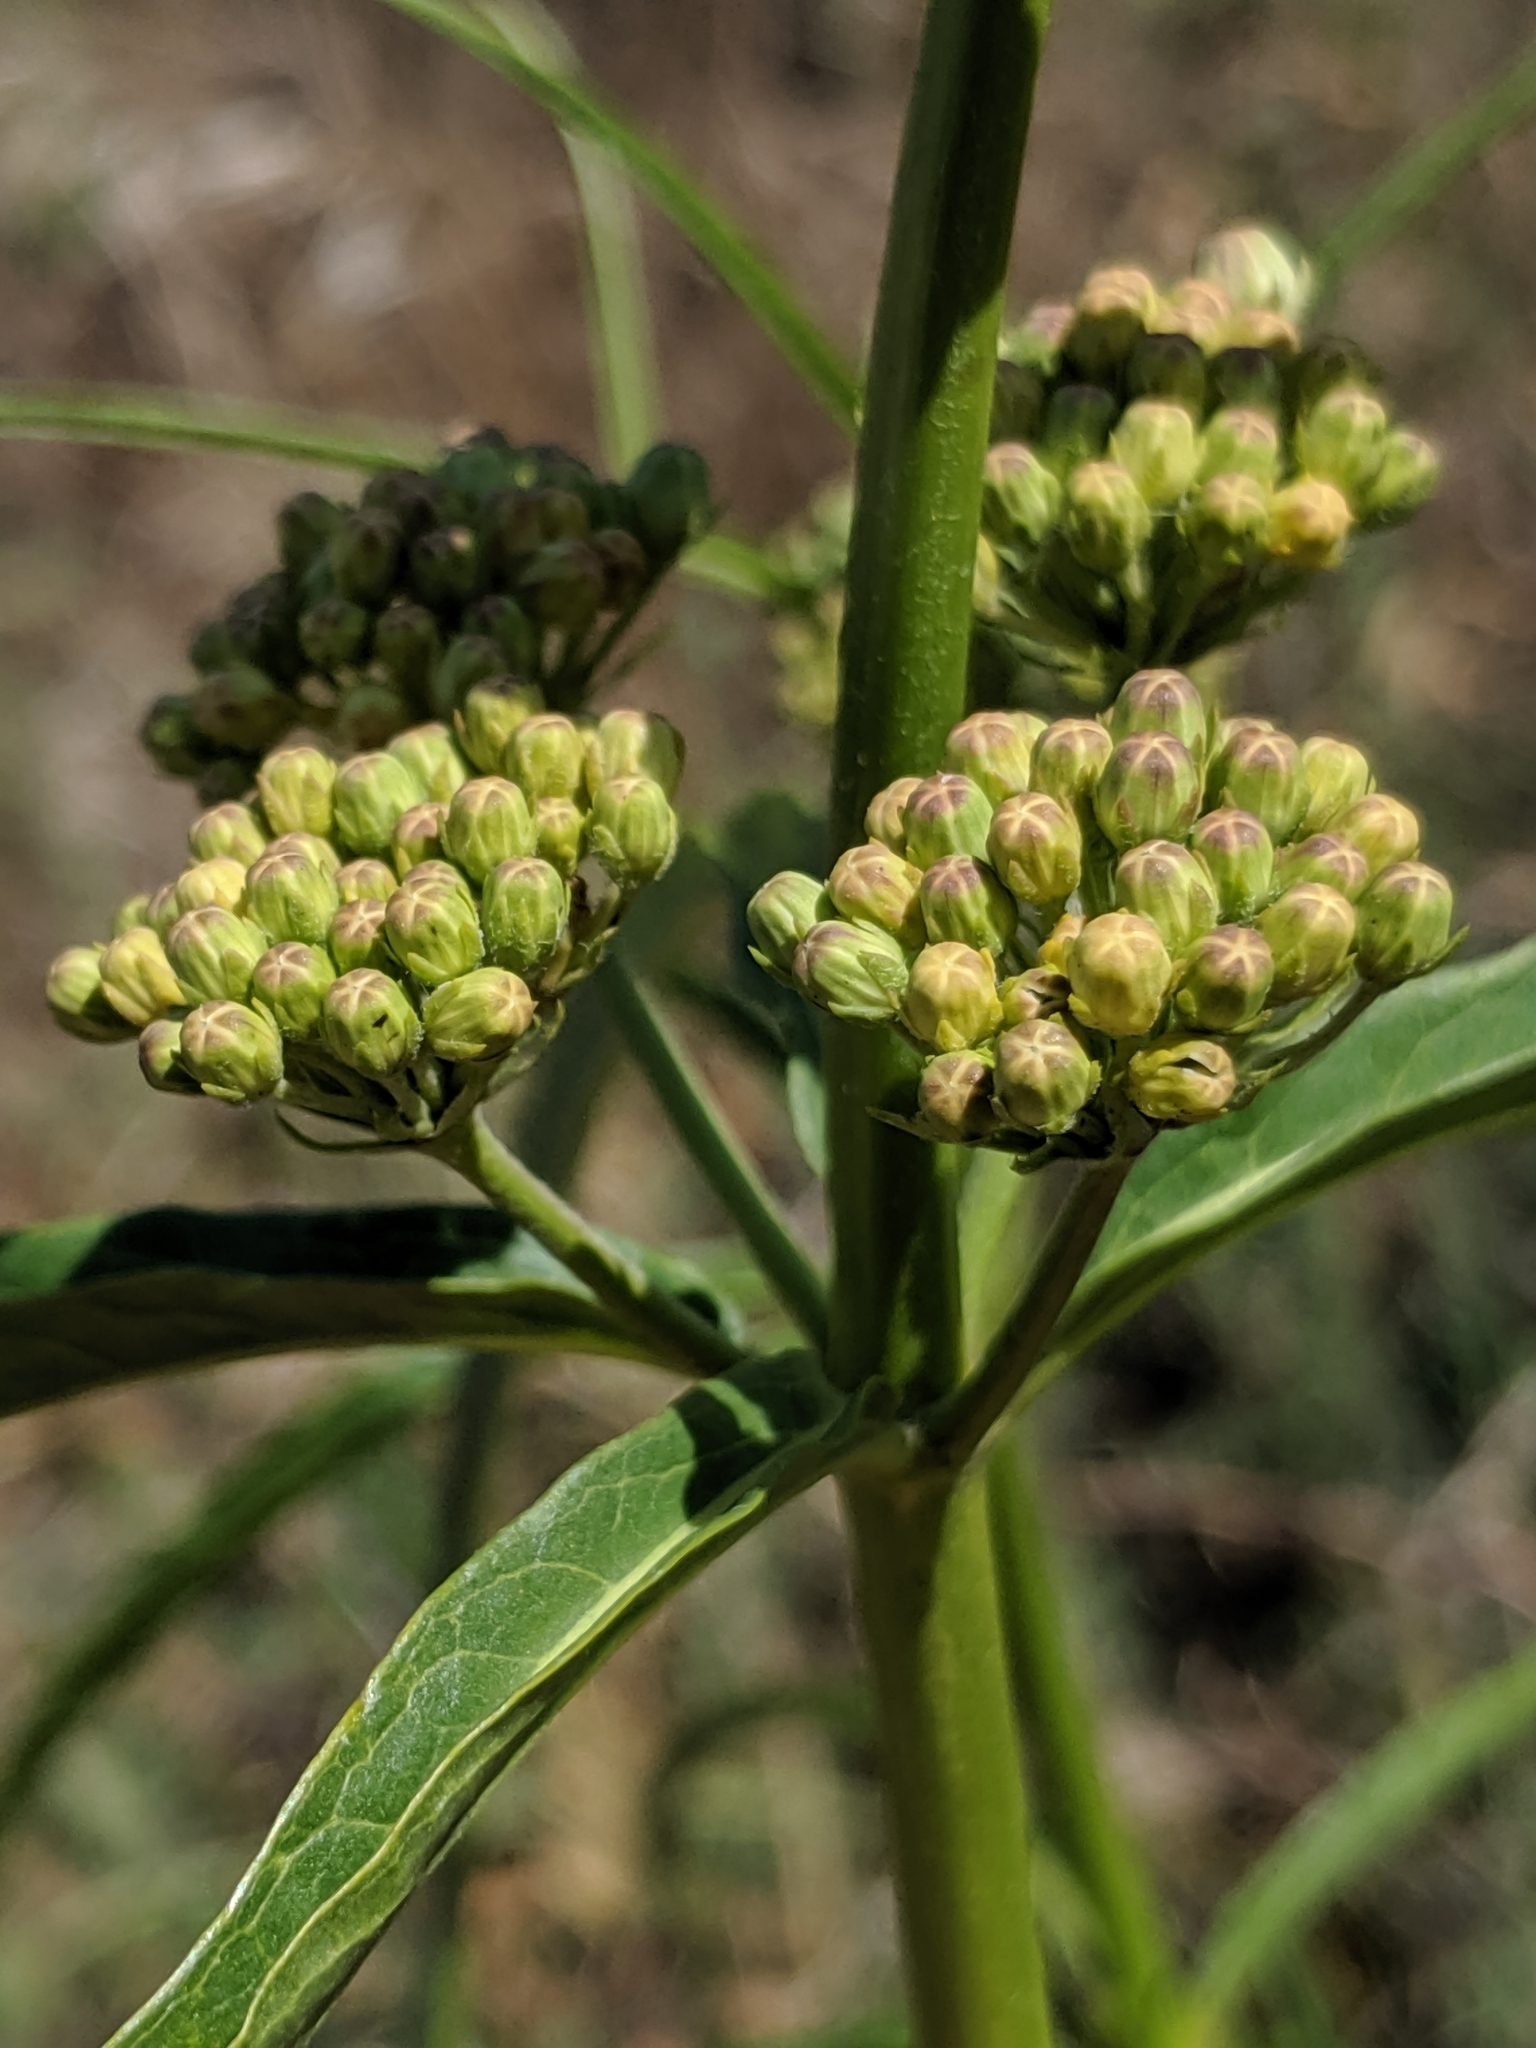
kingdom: Plantae
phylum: Tracheophyta
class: Magnoliopsida
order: Gentianales
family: Apocynaceae
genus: Asclepias
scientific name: Asclepias fascicularis
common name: Mexican milkweed
